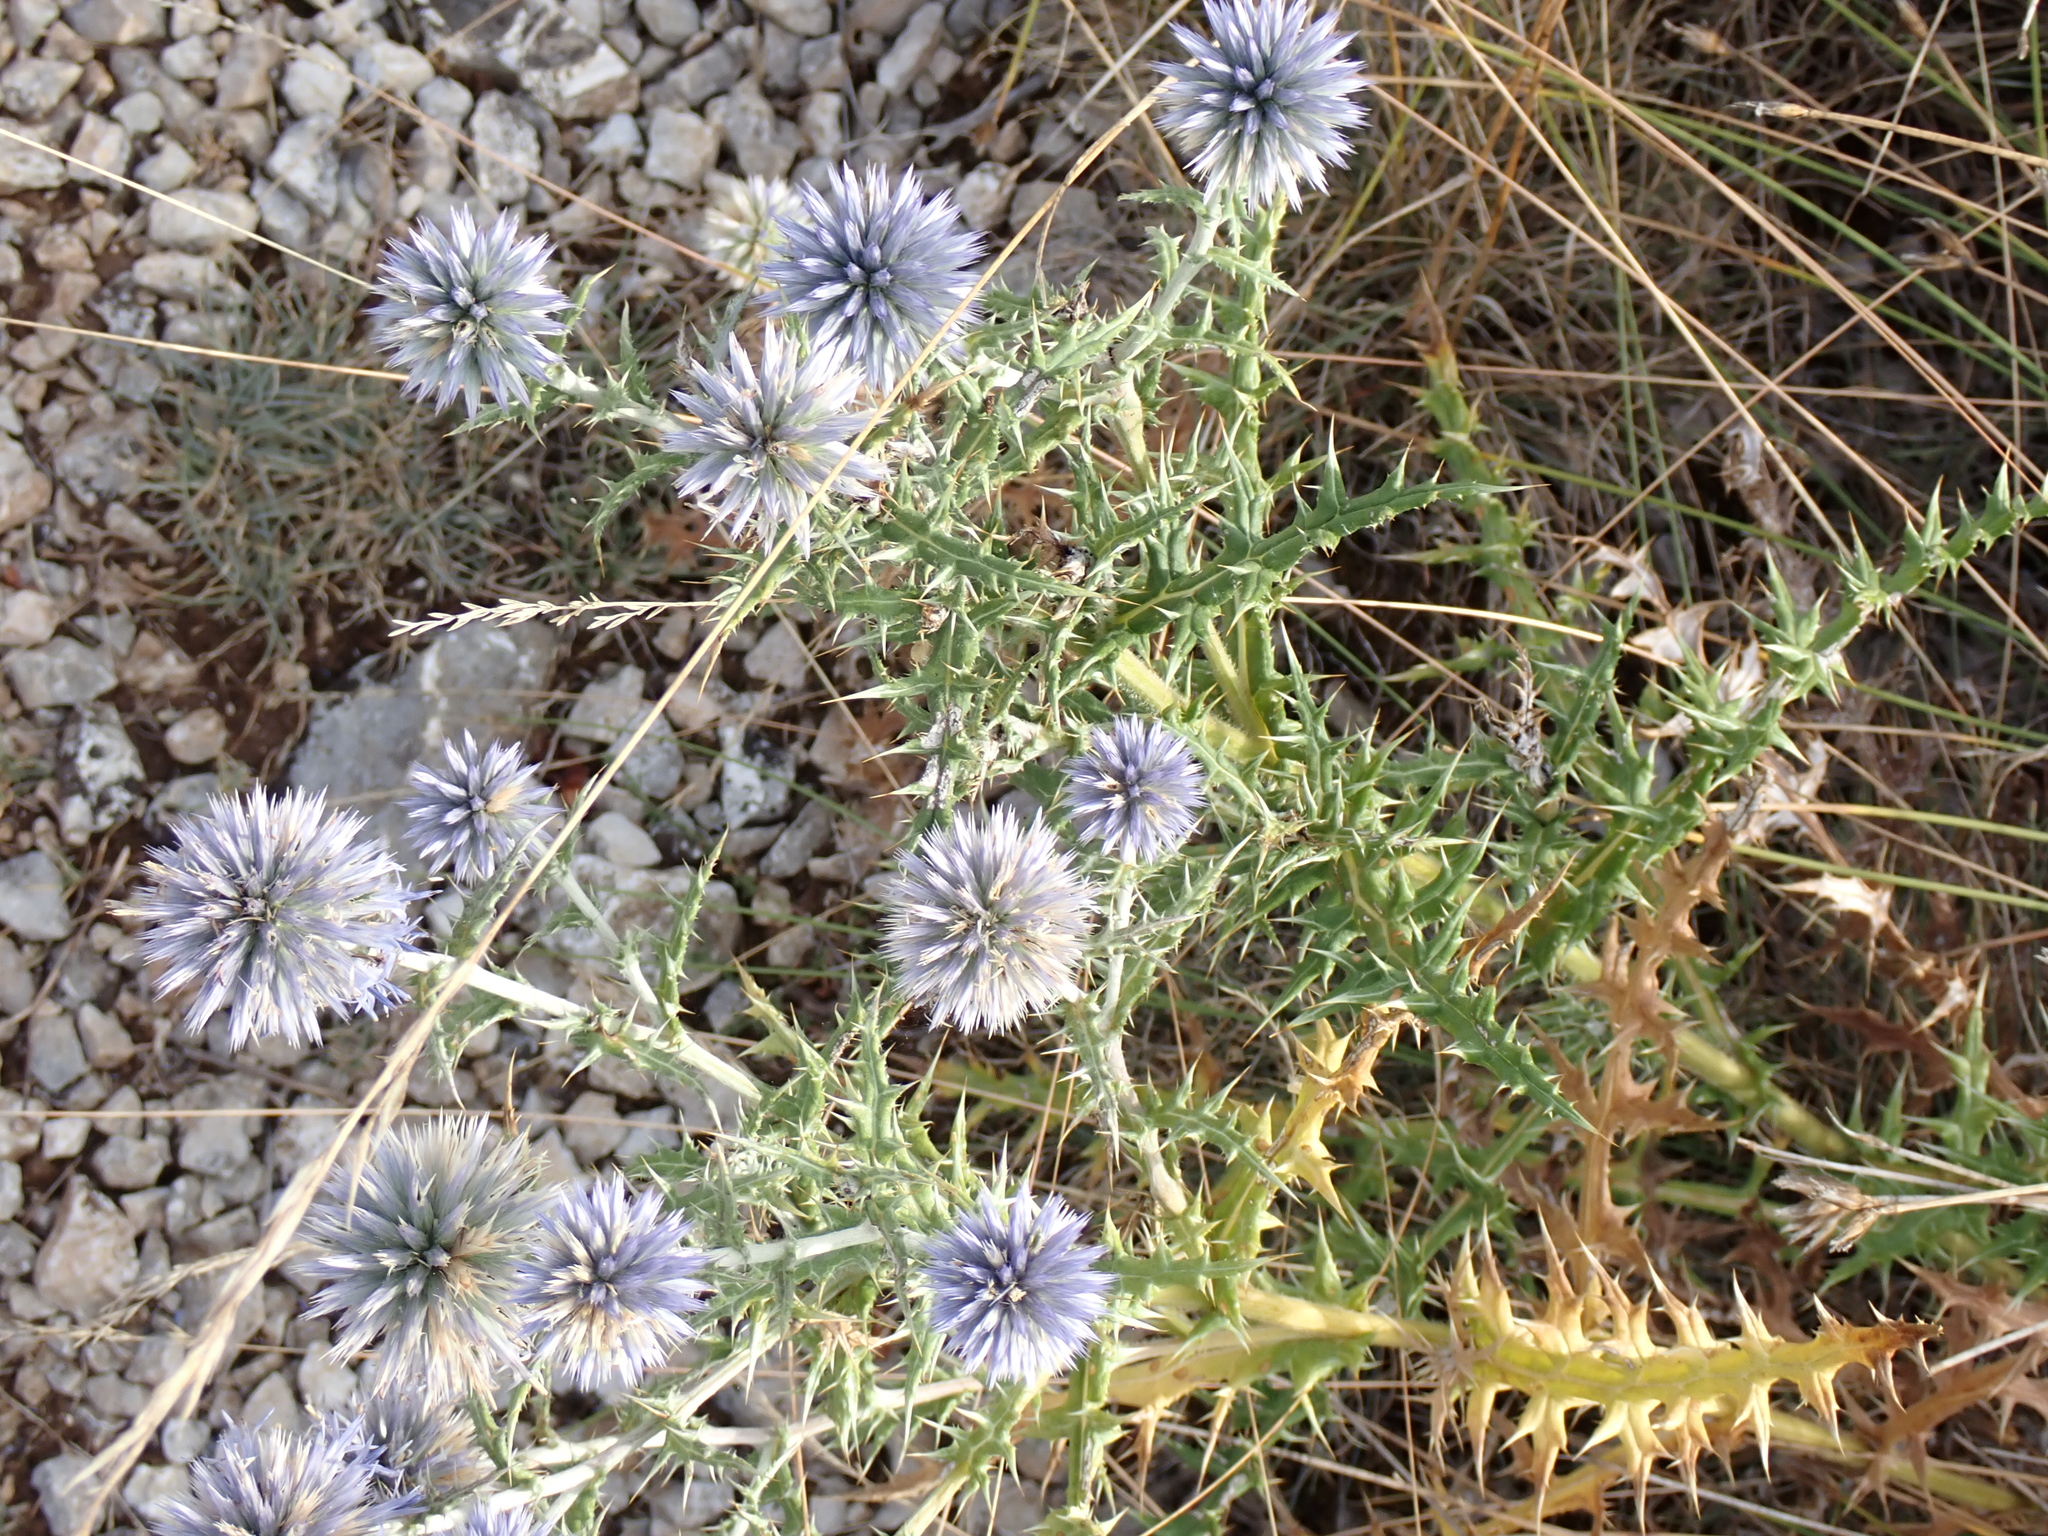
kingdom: Plantae
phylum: Tracheophyta
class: Magnoliopsida
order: Asterales
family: Asteraceae
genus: Echinops
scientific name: Echinops ritro
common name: Globe thistle
